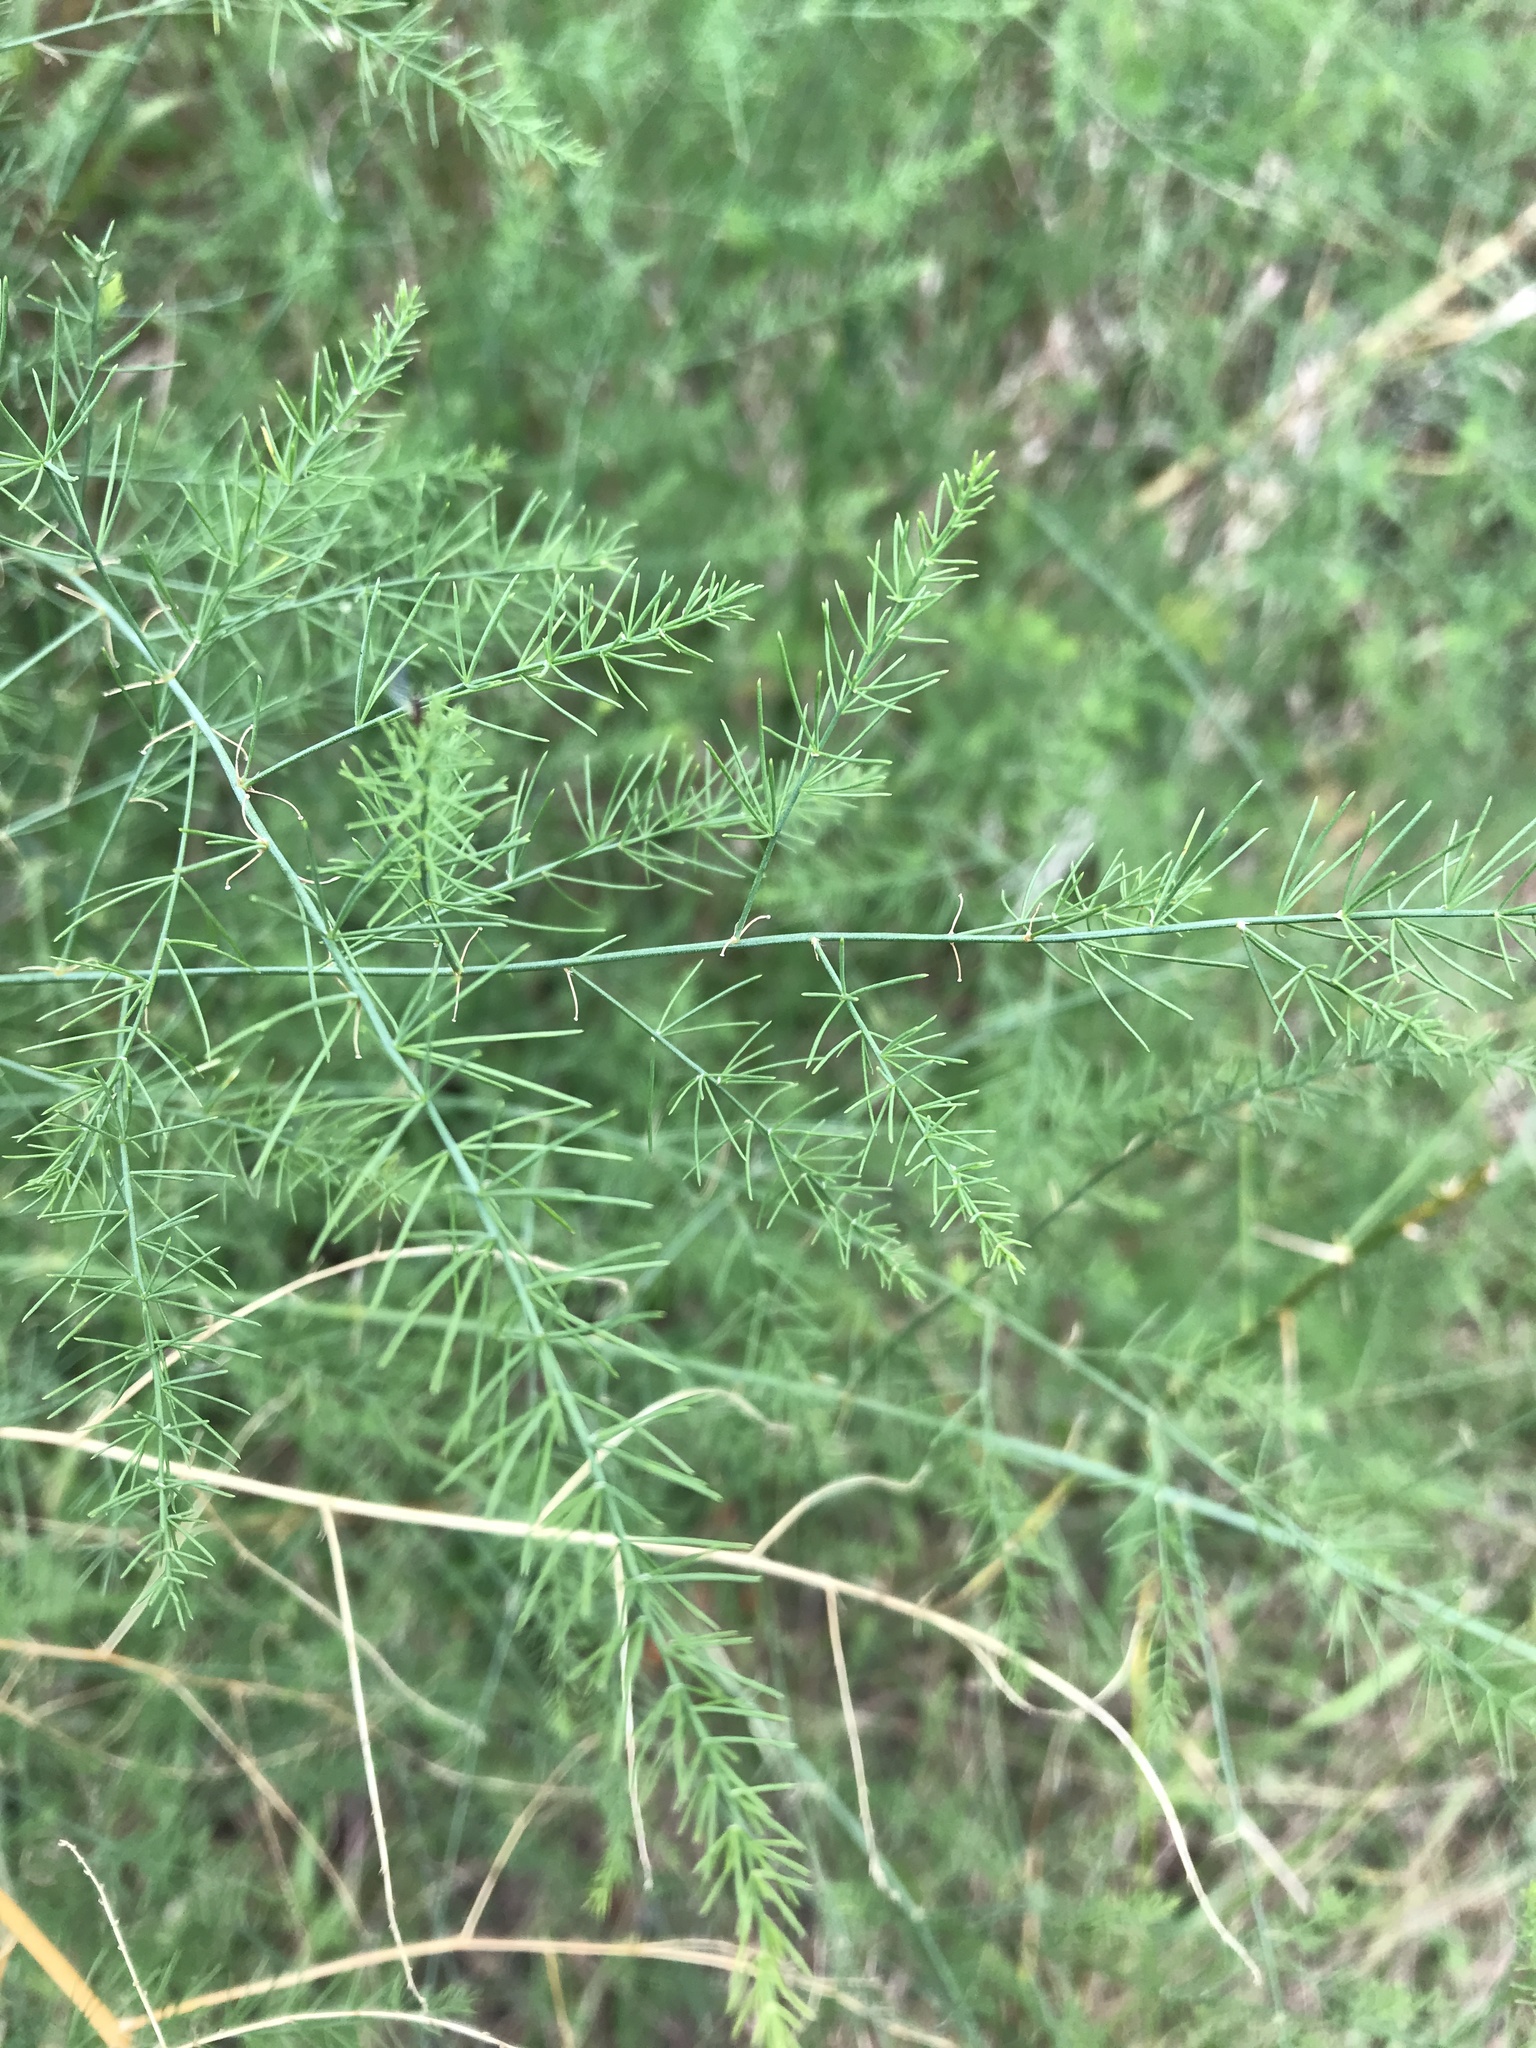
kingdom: Plantae
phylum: Tracheophyta
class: Liliopsida
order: Asparagales
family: Asparagaceae
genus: Asparagus
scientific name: Asparagus officinalis
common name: Garden asparagus
